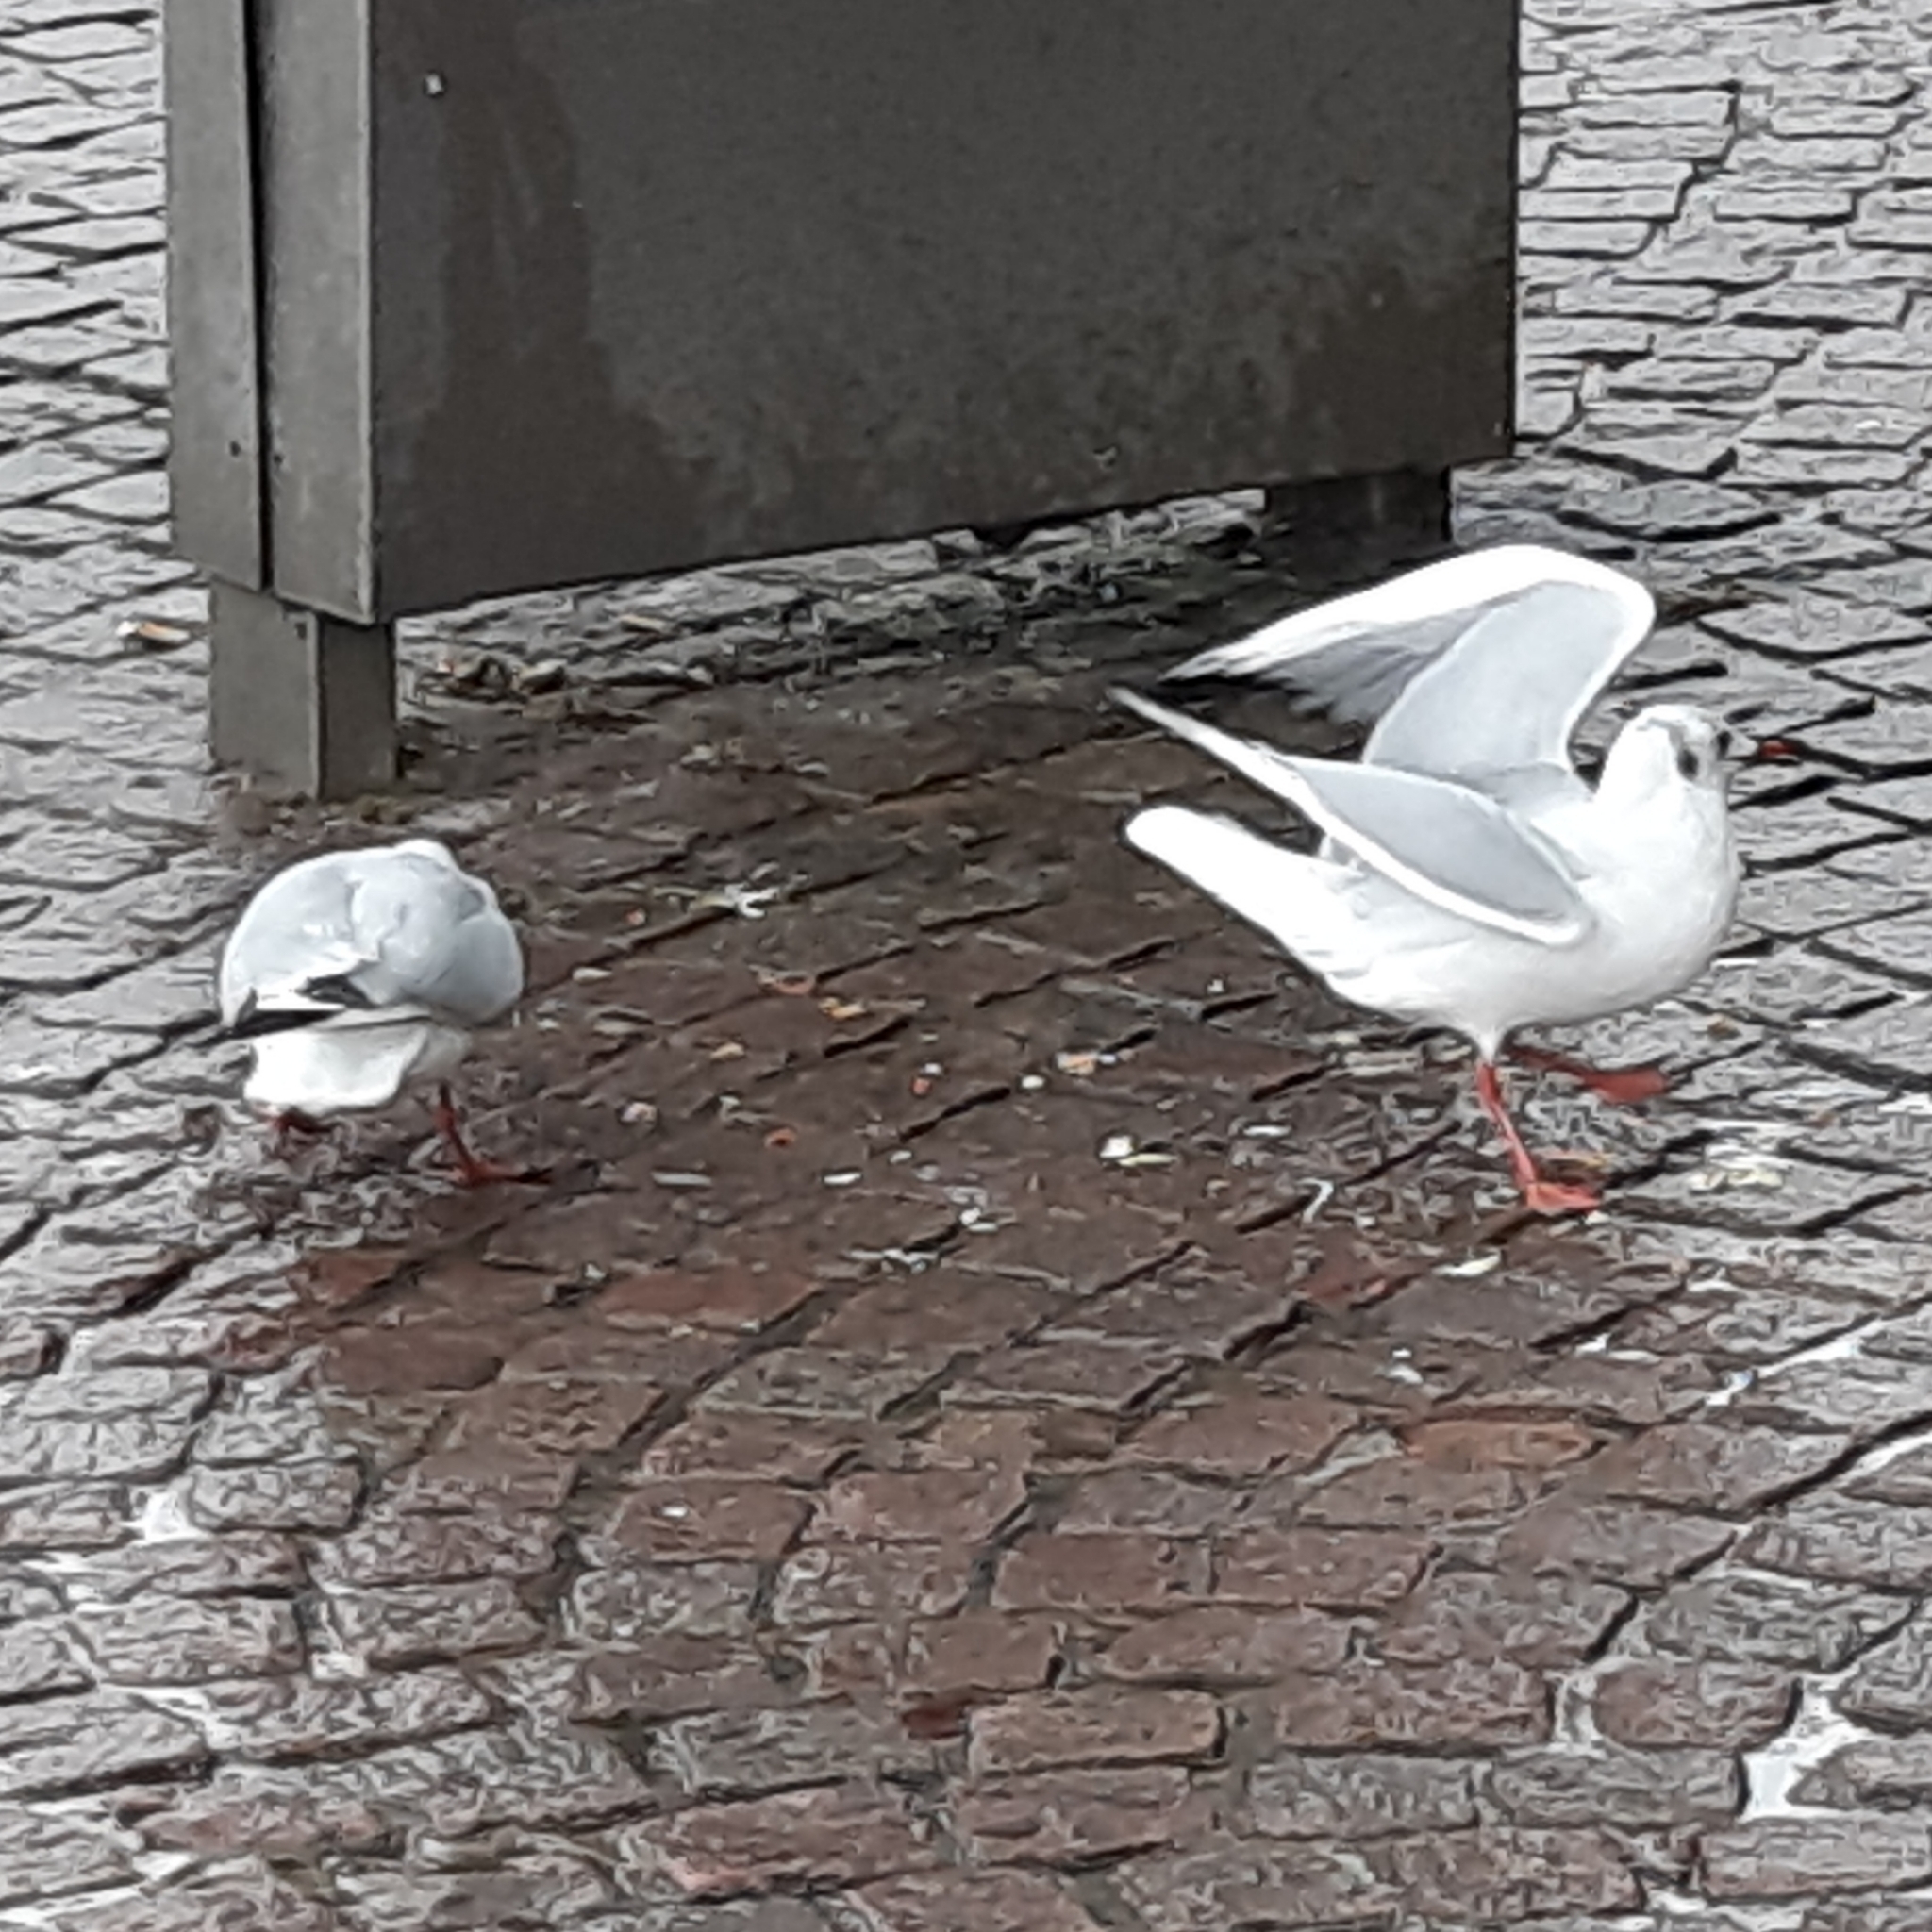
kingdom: Animalia
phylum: Chordata
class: Aves
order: Charadriiformes
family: Laridae
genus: Chroicocephalus
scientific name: Chroicocephalus ridibundus
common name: Black-headed gull
